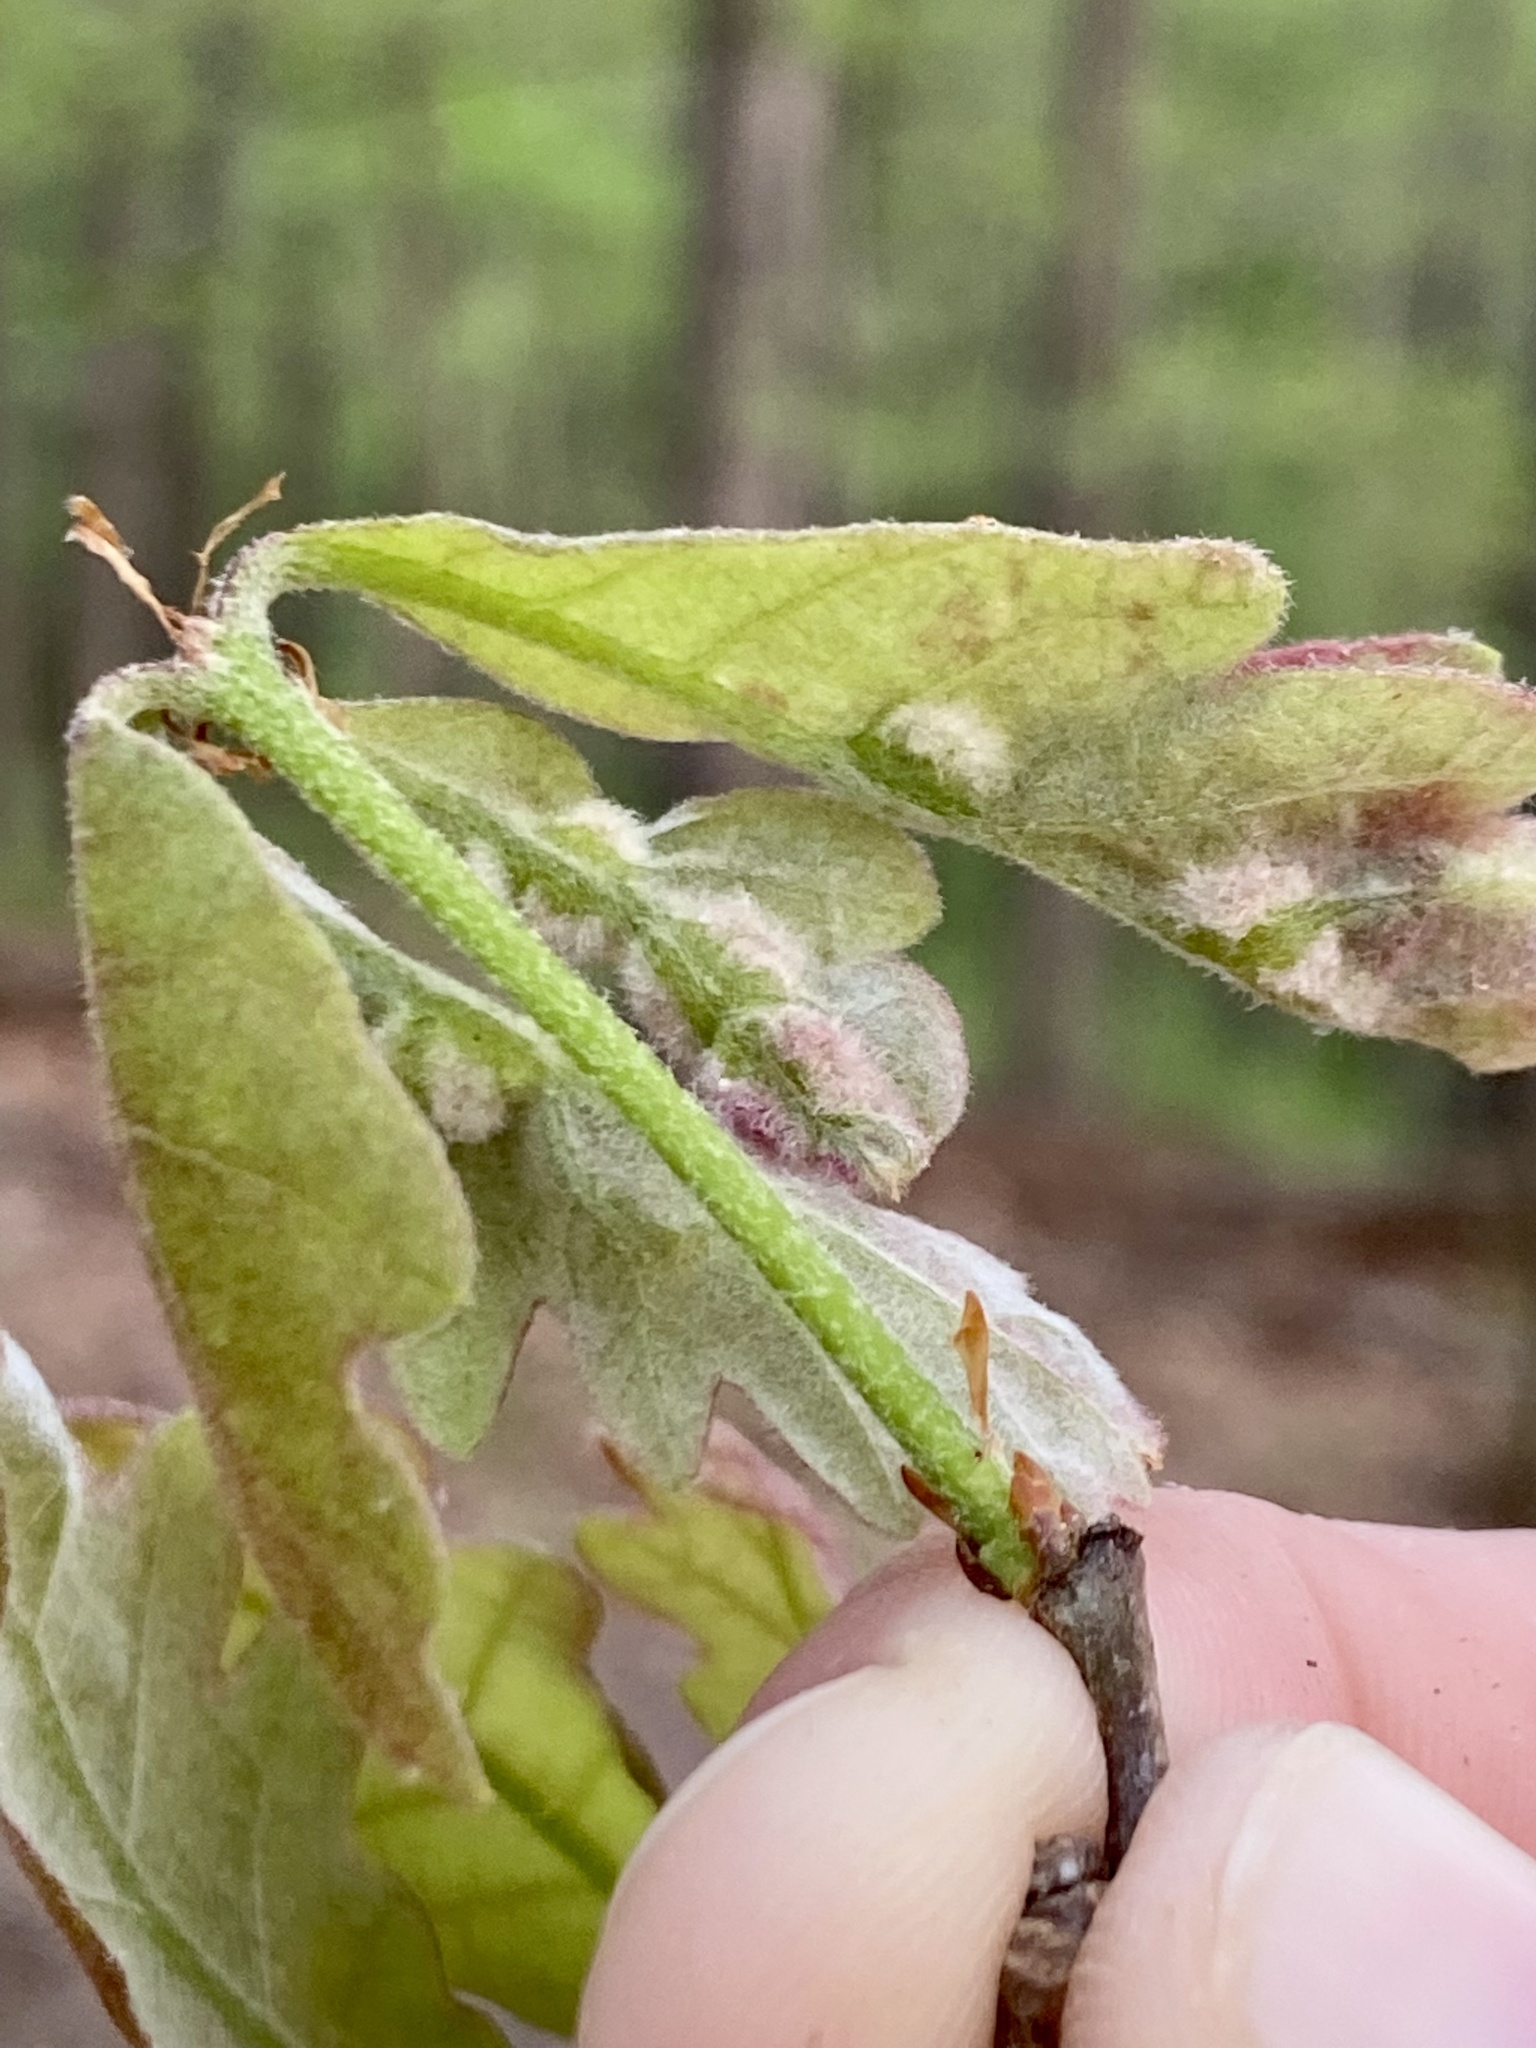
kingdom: Animalia
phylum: Arthropoda
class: Insecta
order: Diptera
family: Cecidomyiidae
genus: Macrodiplosis
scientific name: Macrodiplosis niveipila
